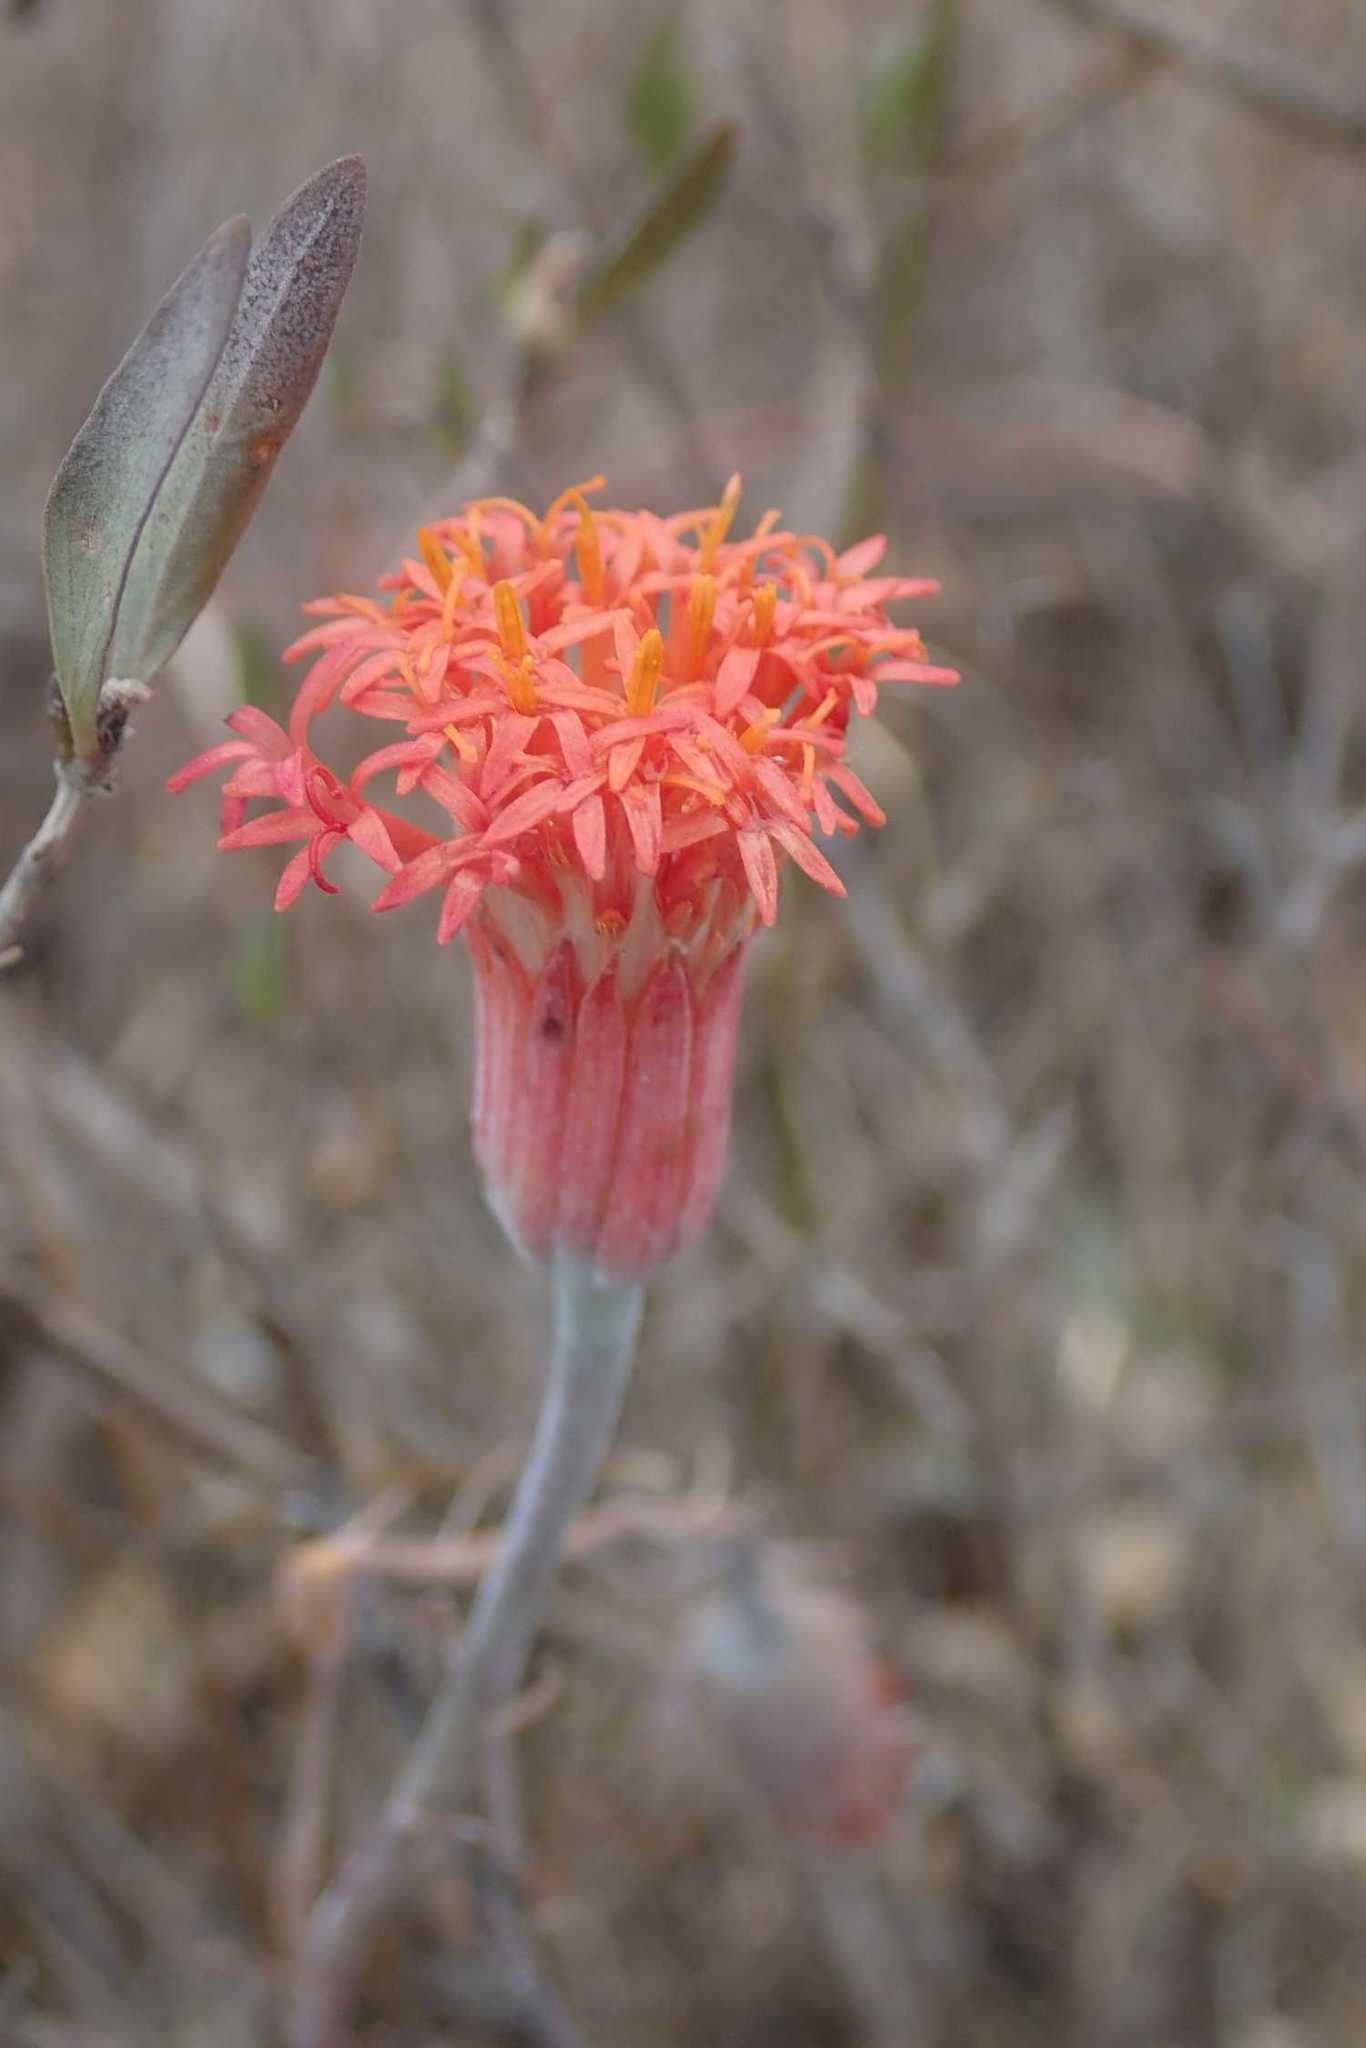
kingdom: Plantae
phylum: Tracheophyta
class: Magnoliopsida
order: Asterales
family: Asteraceae
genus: Kleinia
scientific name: Kleinia stapeliiformis
